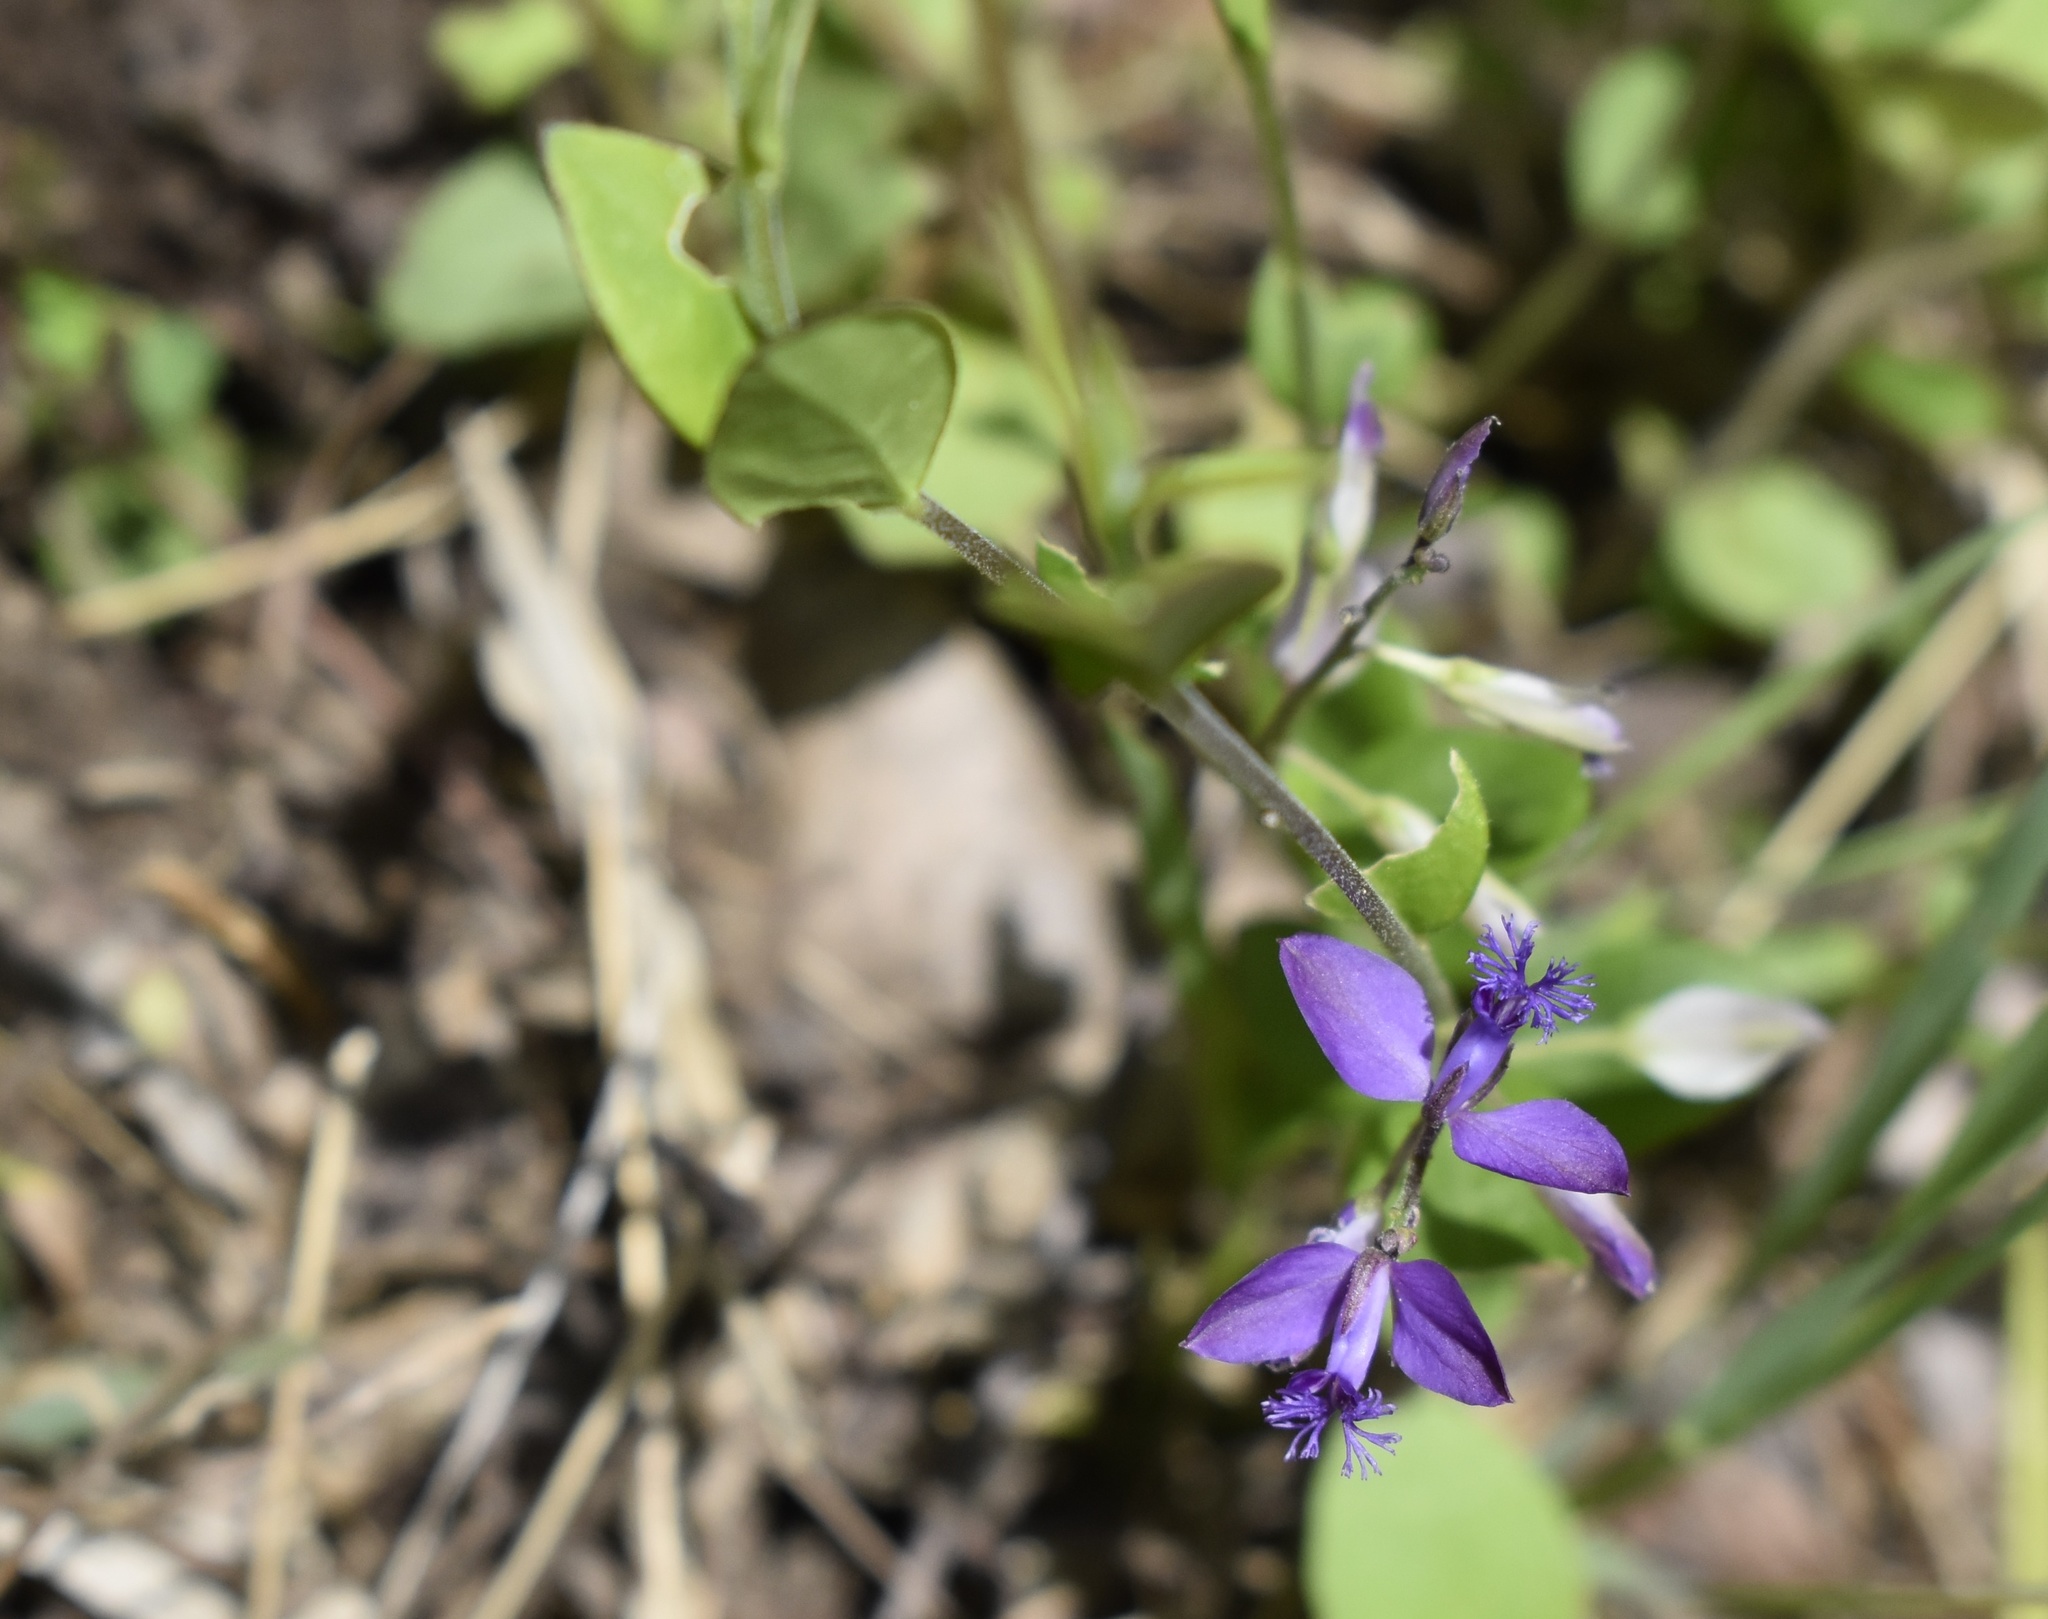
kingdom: Plantae
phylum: Tracheophyta
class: Magnoliopsida
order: Fabales
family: Polygalaceae
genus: Polygala
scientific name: Polygala japonica
